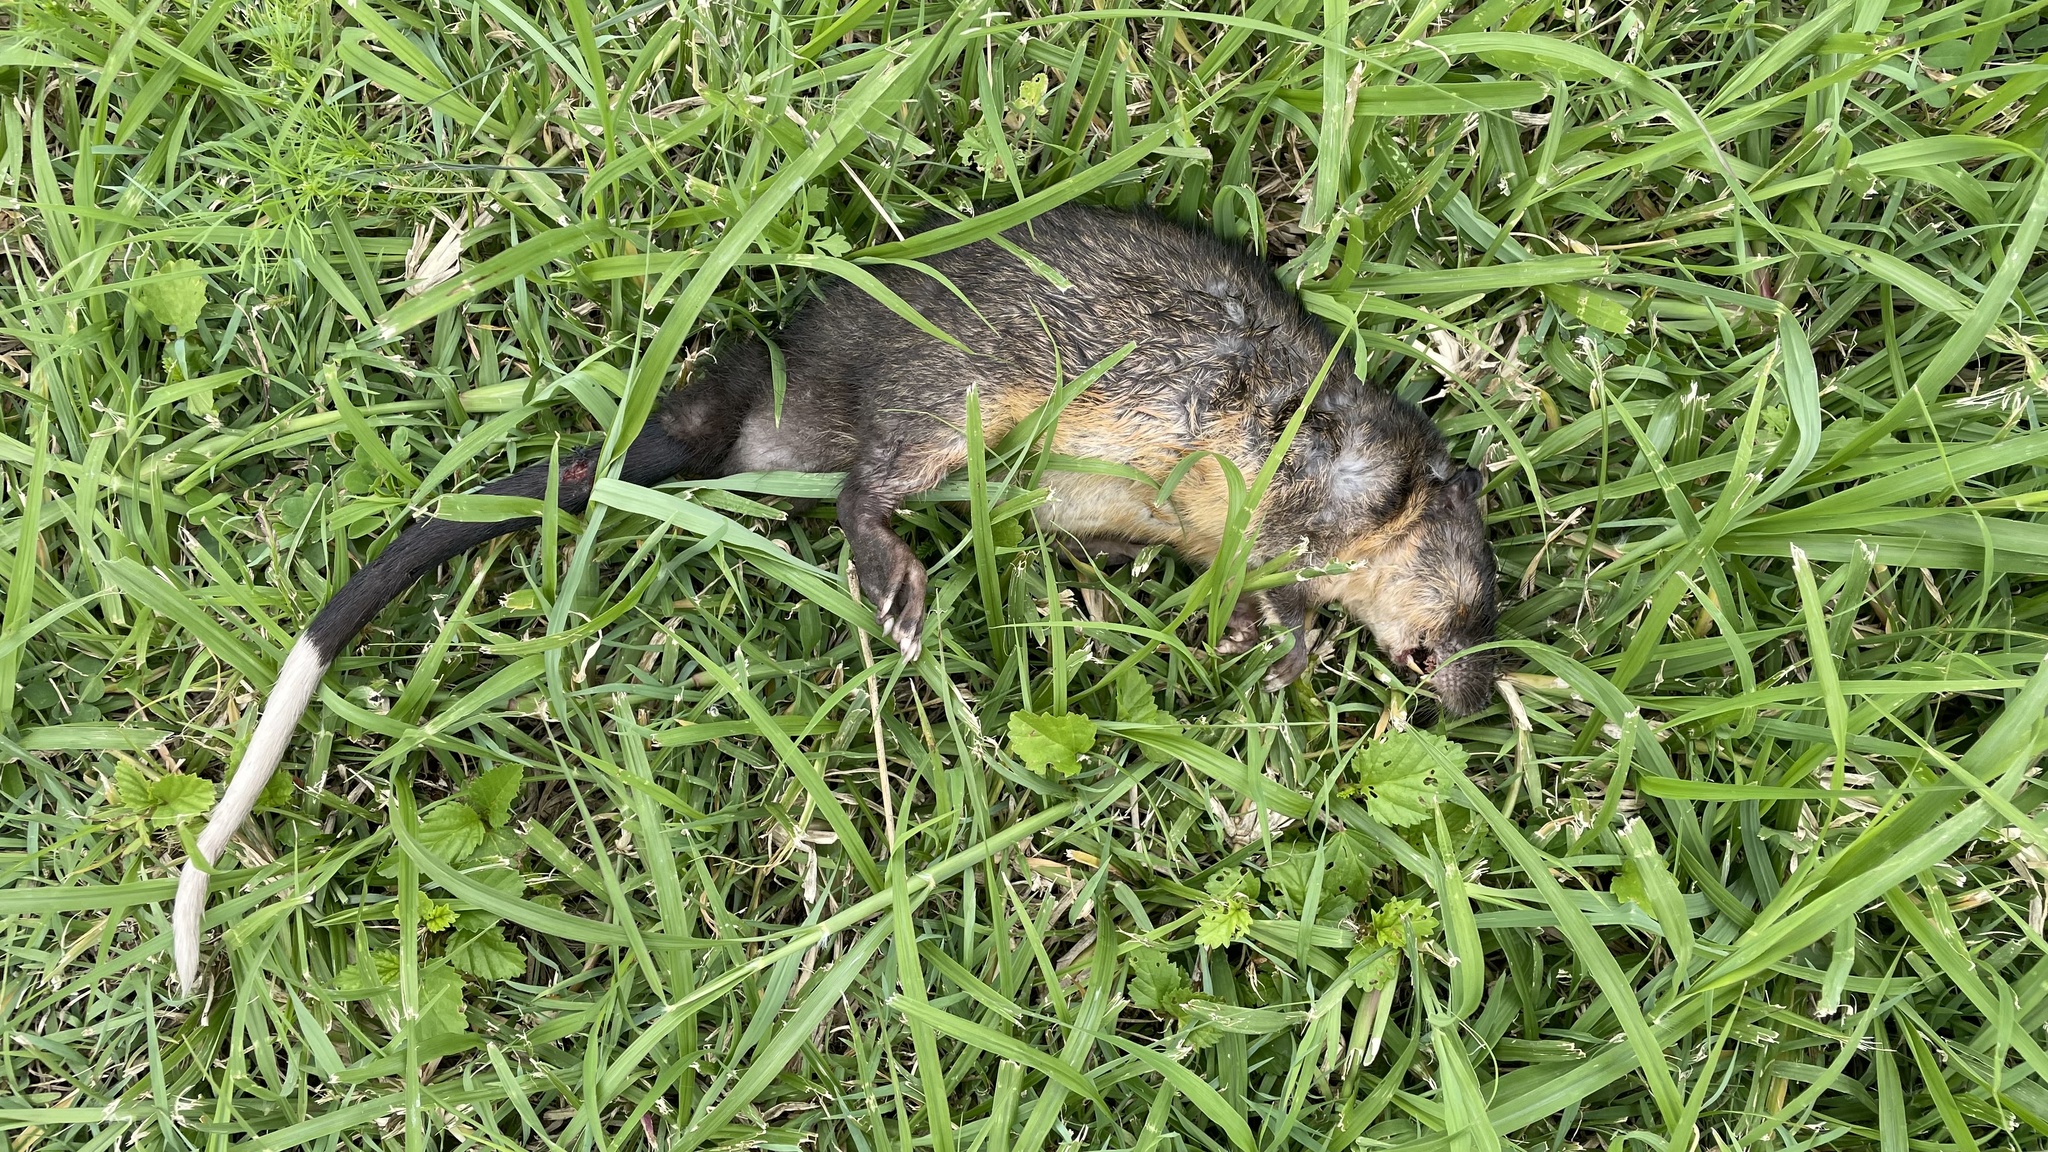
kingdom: Animalia
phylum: Chordata
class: Mammalia
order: Rodentia
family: Muridae
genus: Hydromys
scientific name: Hydromys chrysogaster
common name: Common water rat
